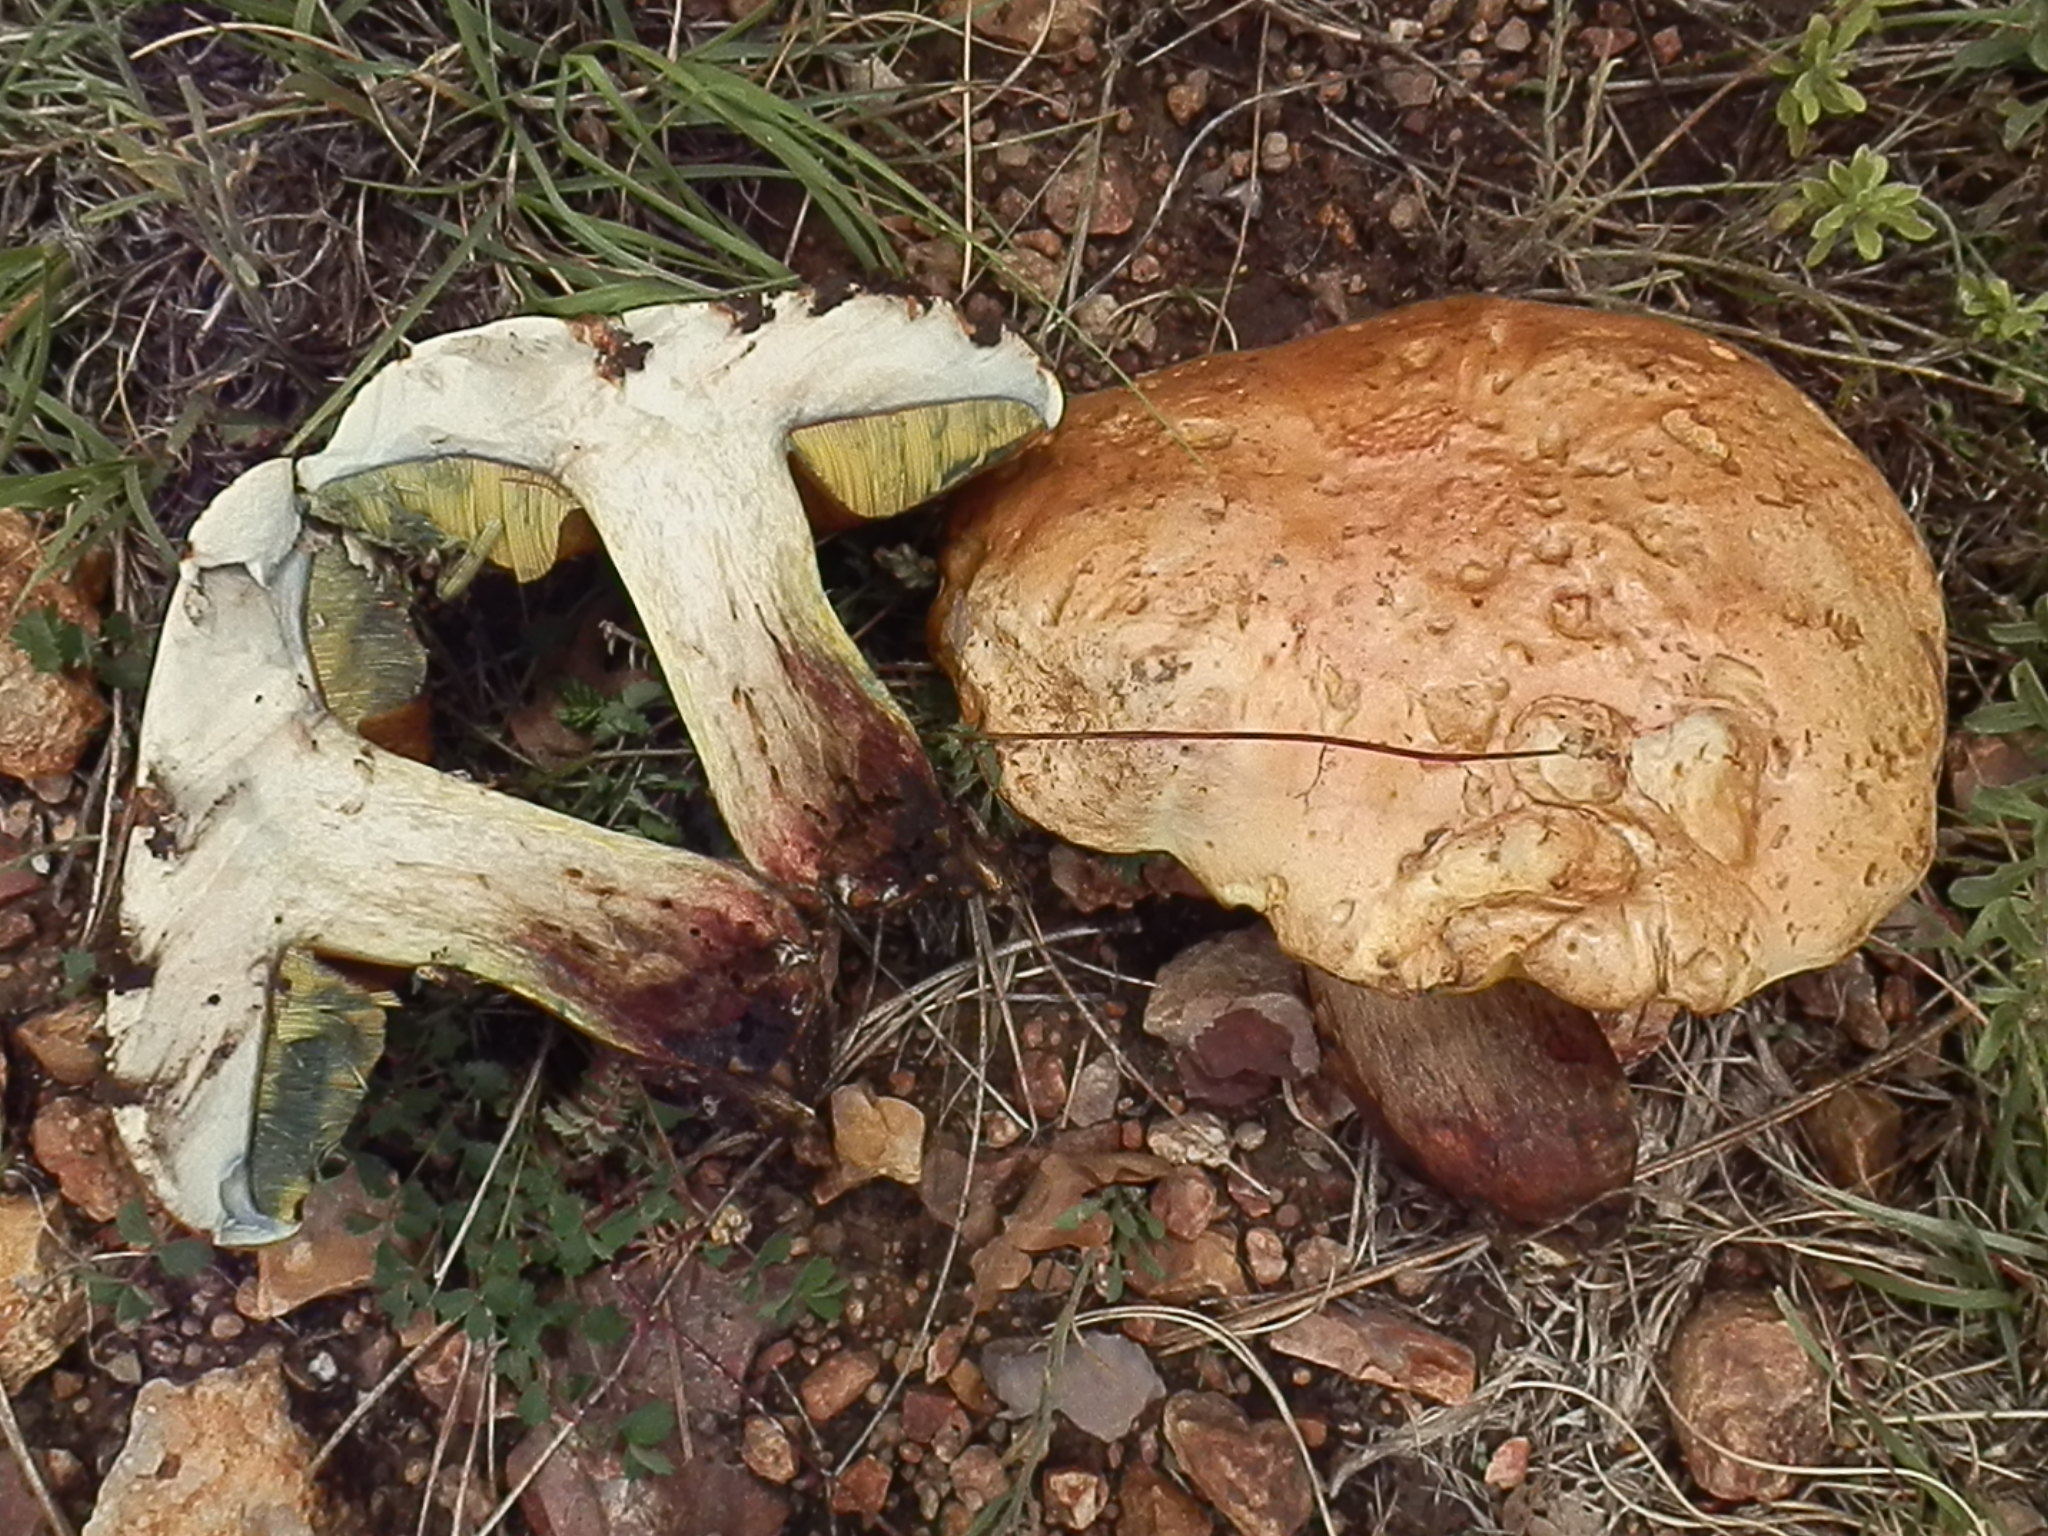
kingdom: Fungi
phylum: Basidiomycota
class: Agaricomycetes
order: Boletales
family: Boletaceae
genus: Boletus
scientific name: Boletus vermiculosoides
